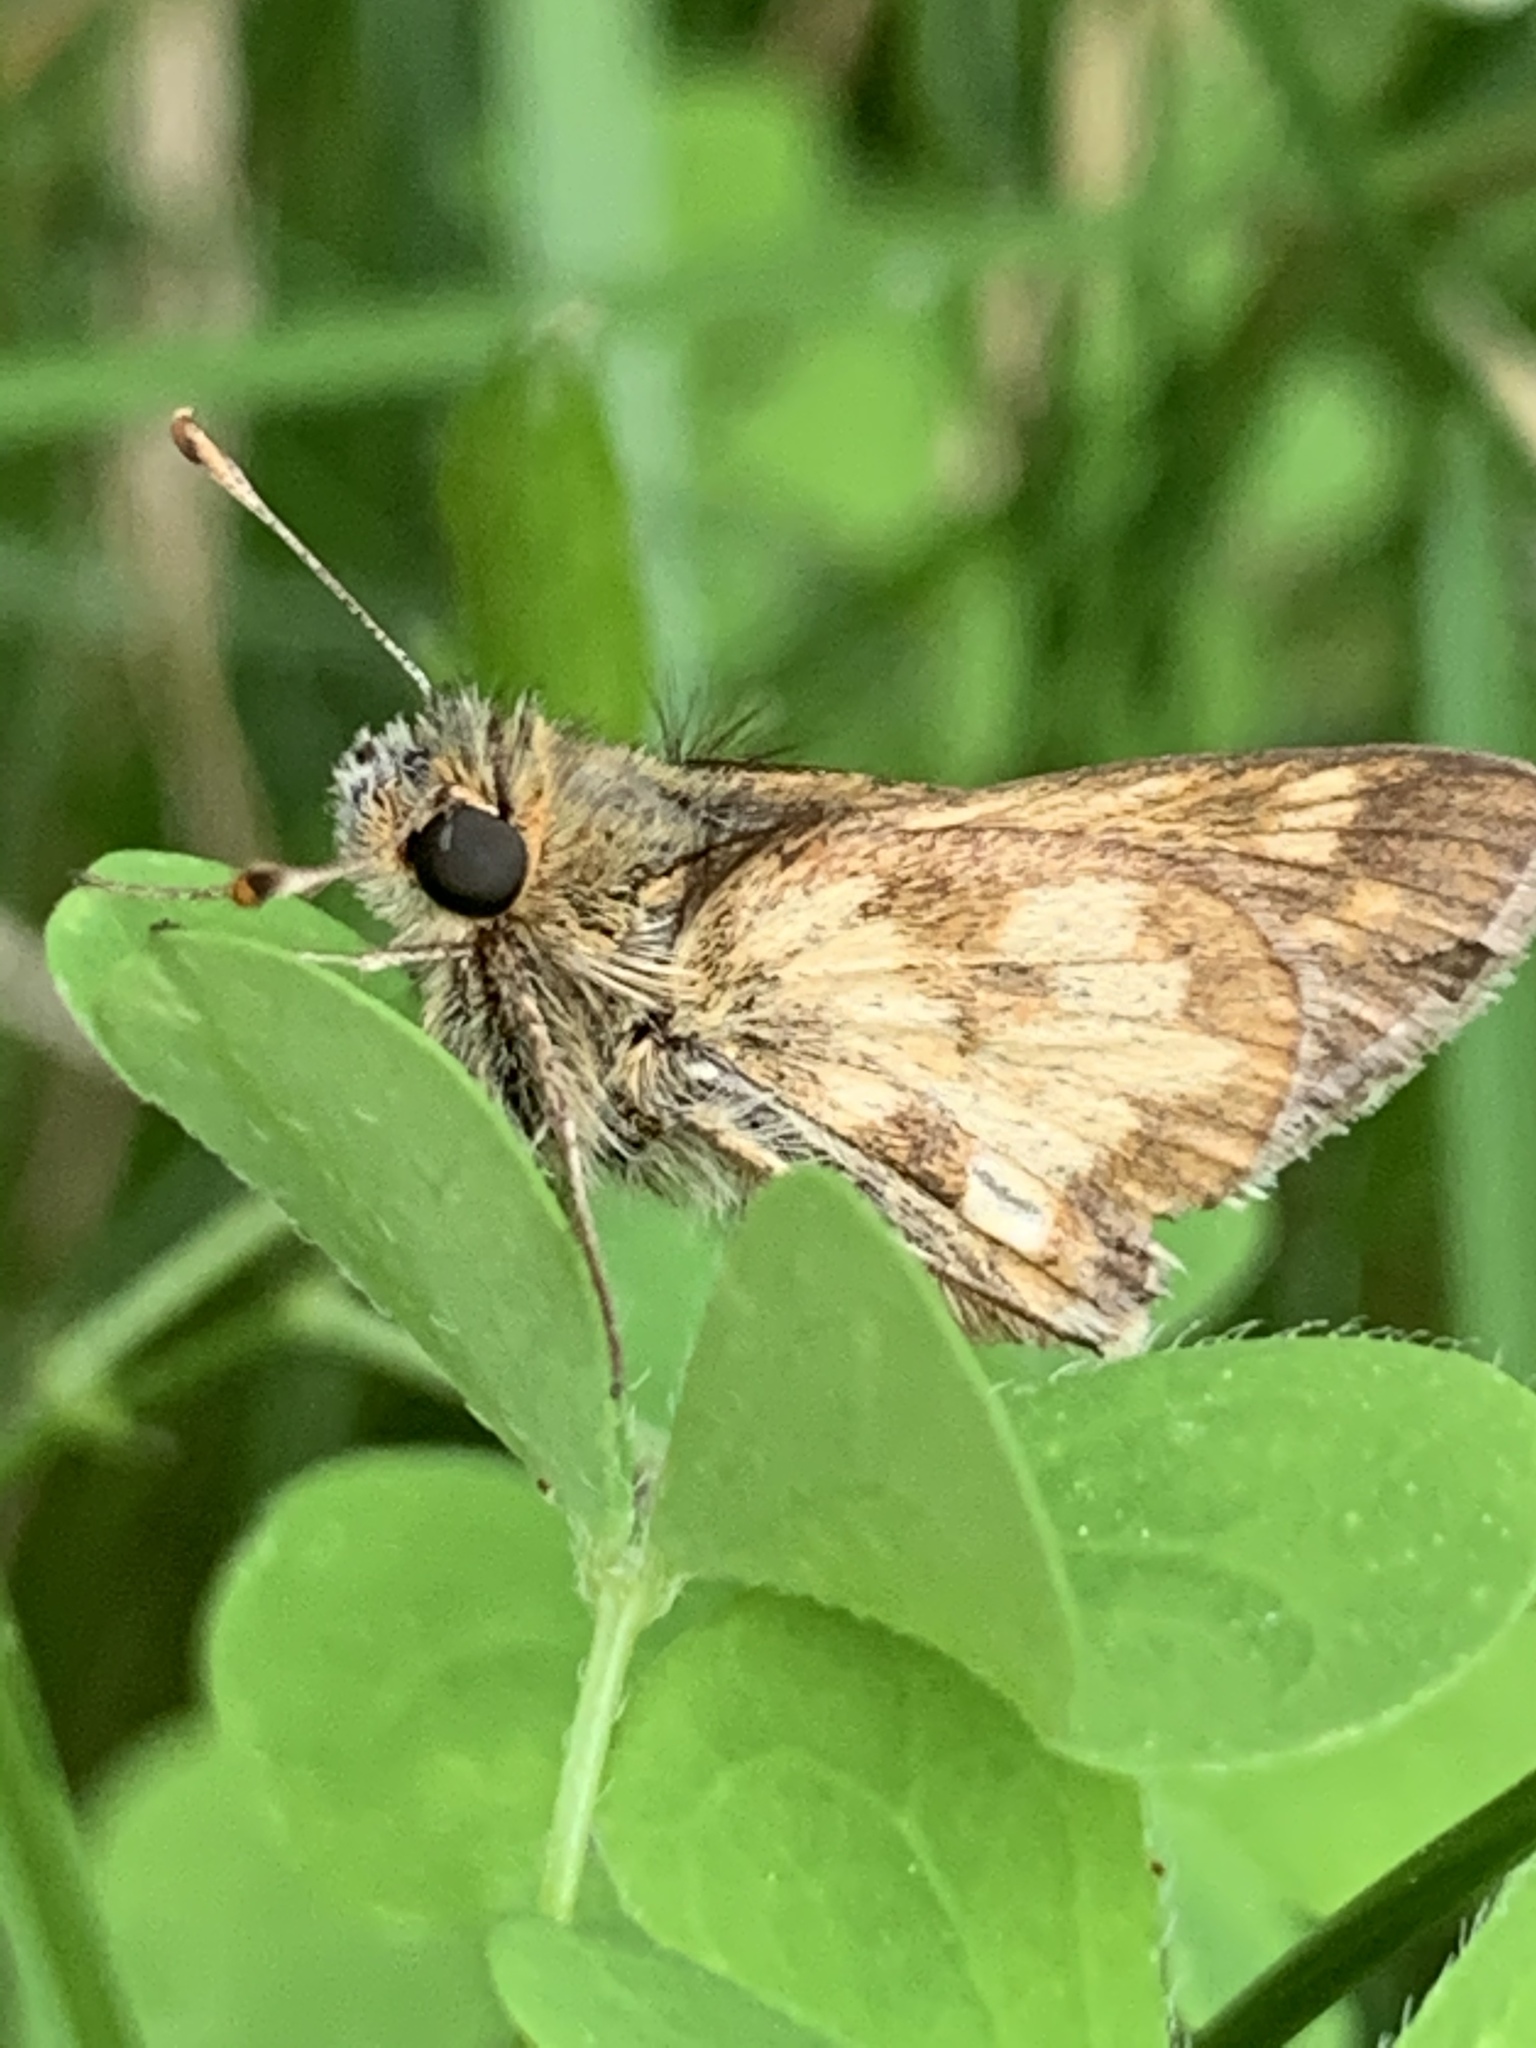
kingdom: Animalia
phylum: Arthropoda
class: Insecta
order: Lepidoptera
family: Hesperiidae
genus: Polites
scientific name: Polites coras
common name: Peck's skipper
